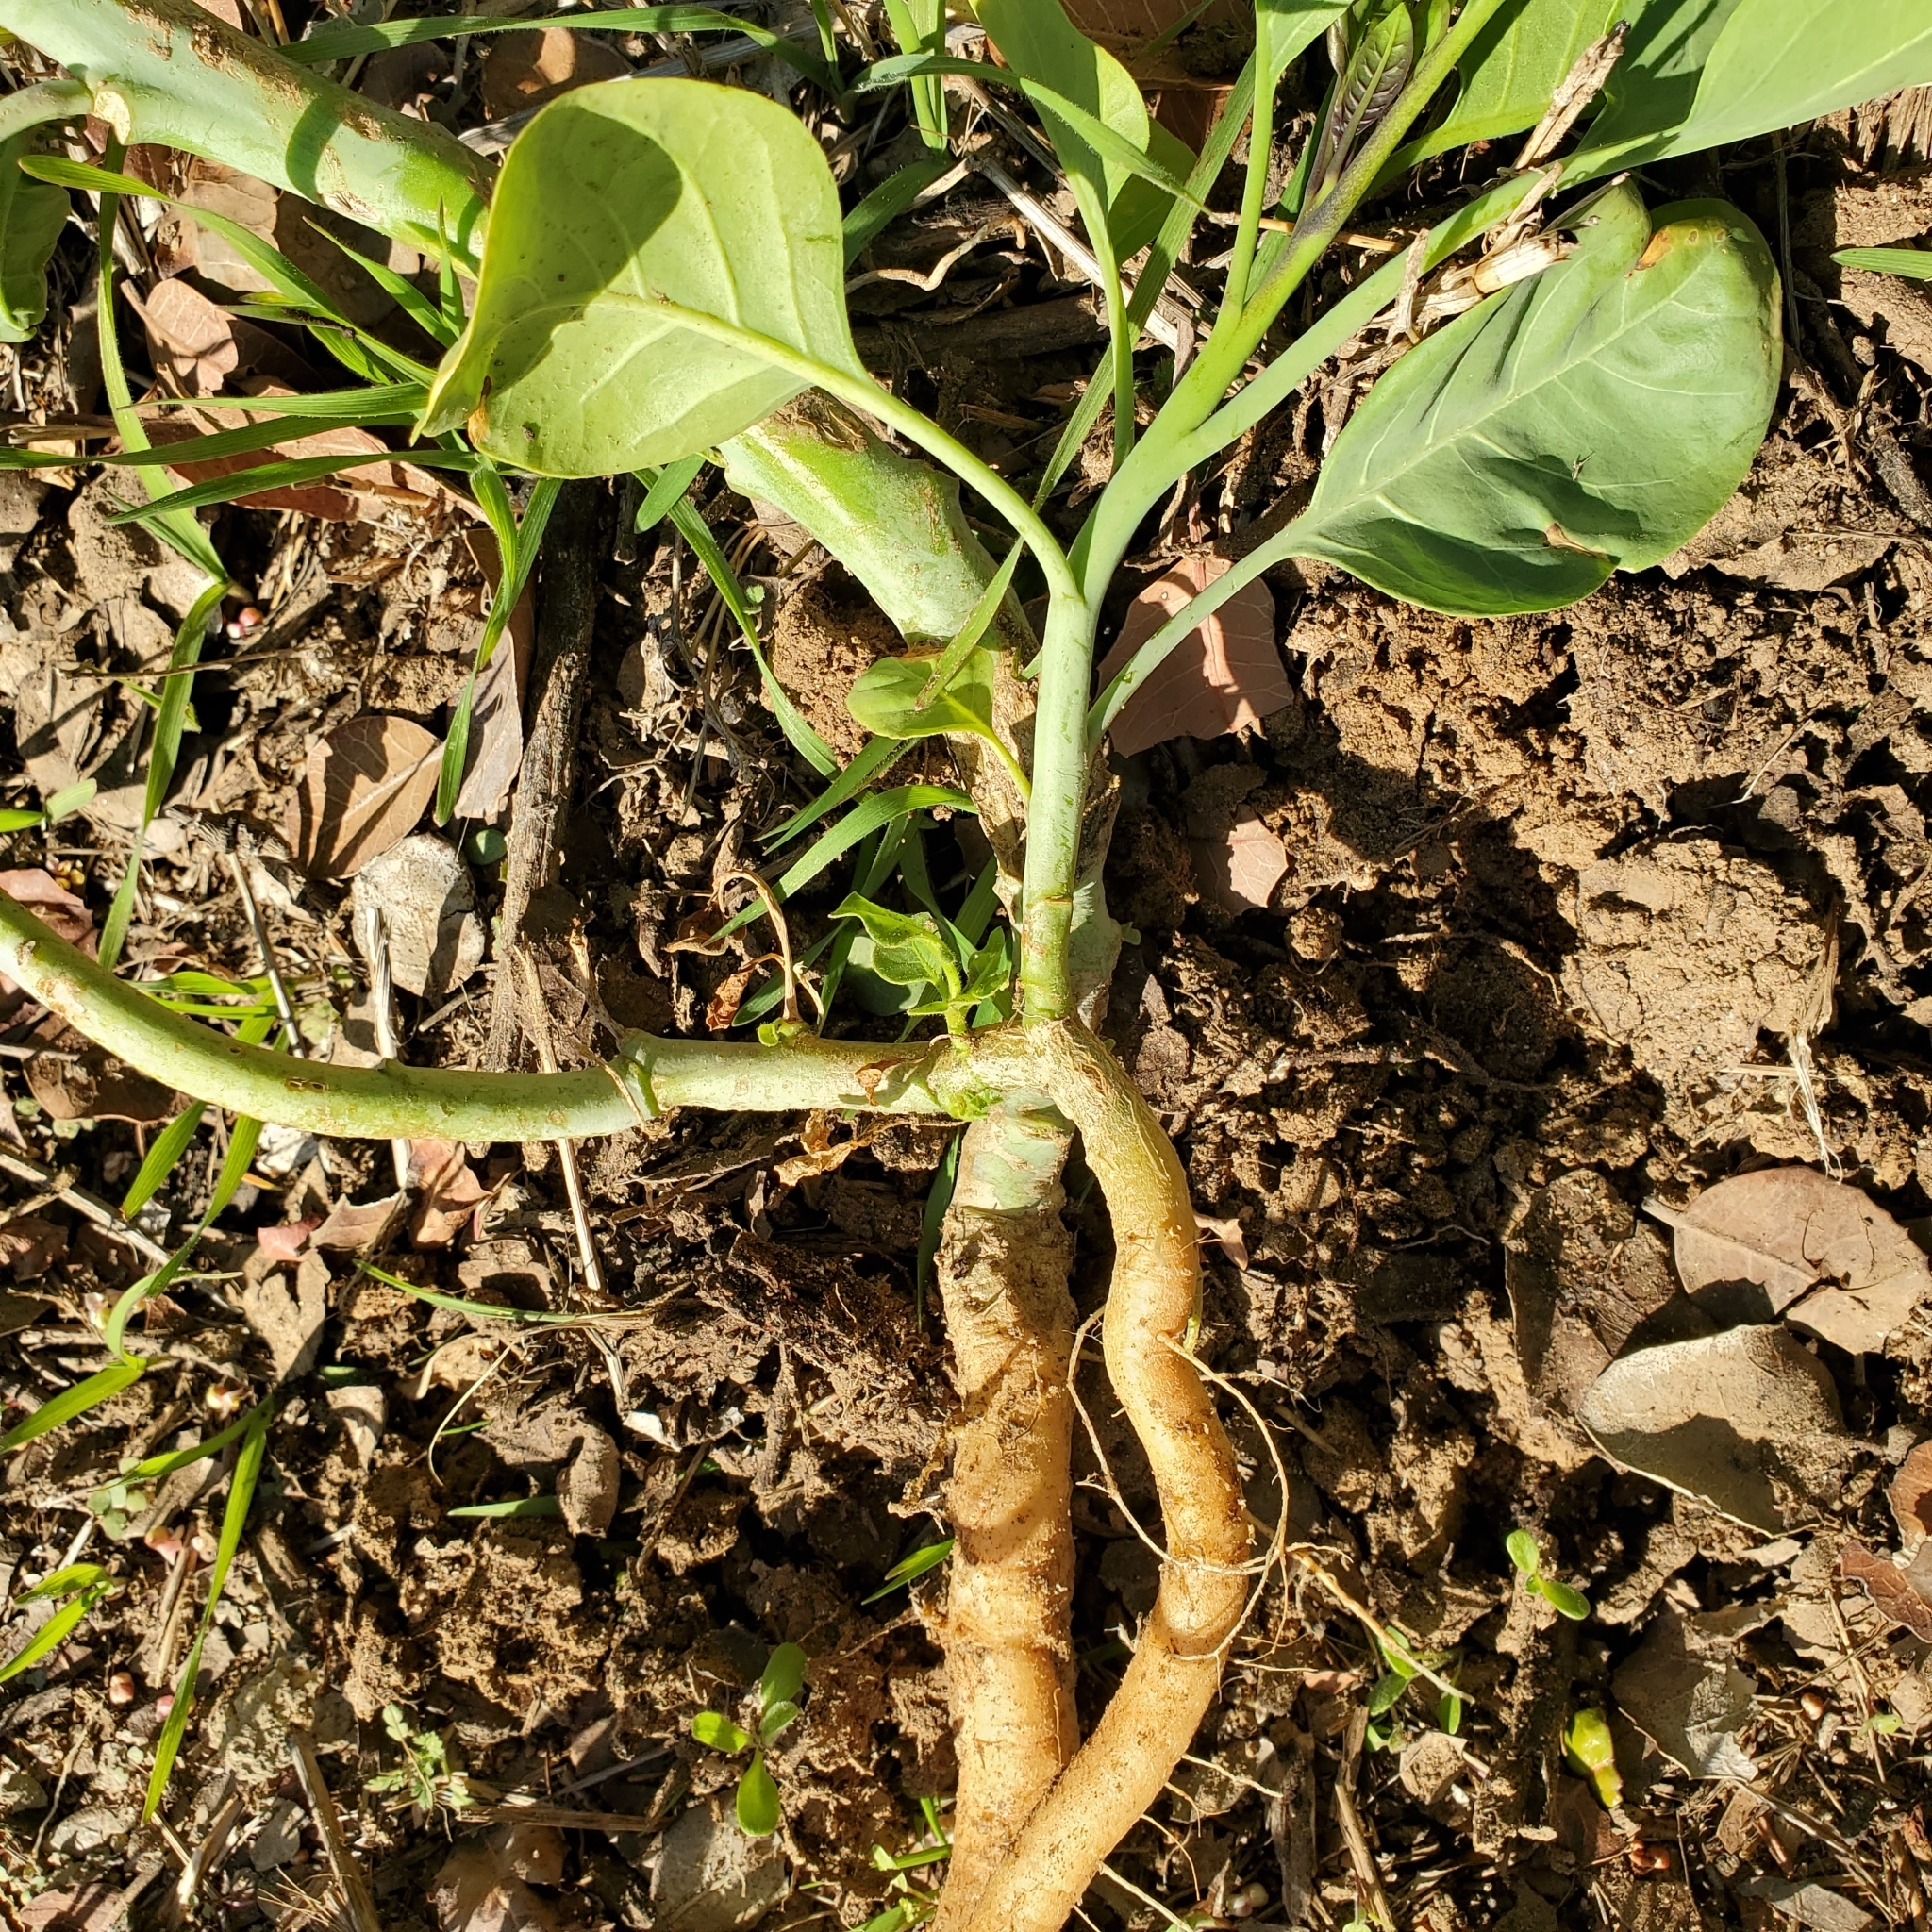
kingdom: Plantae
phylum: Tracheophyta
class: Magnoliopsida
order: Solanales
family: Solanaceae
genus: Nicotiana
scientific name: Nicotiana glauca
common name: Tree tobacco
